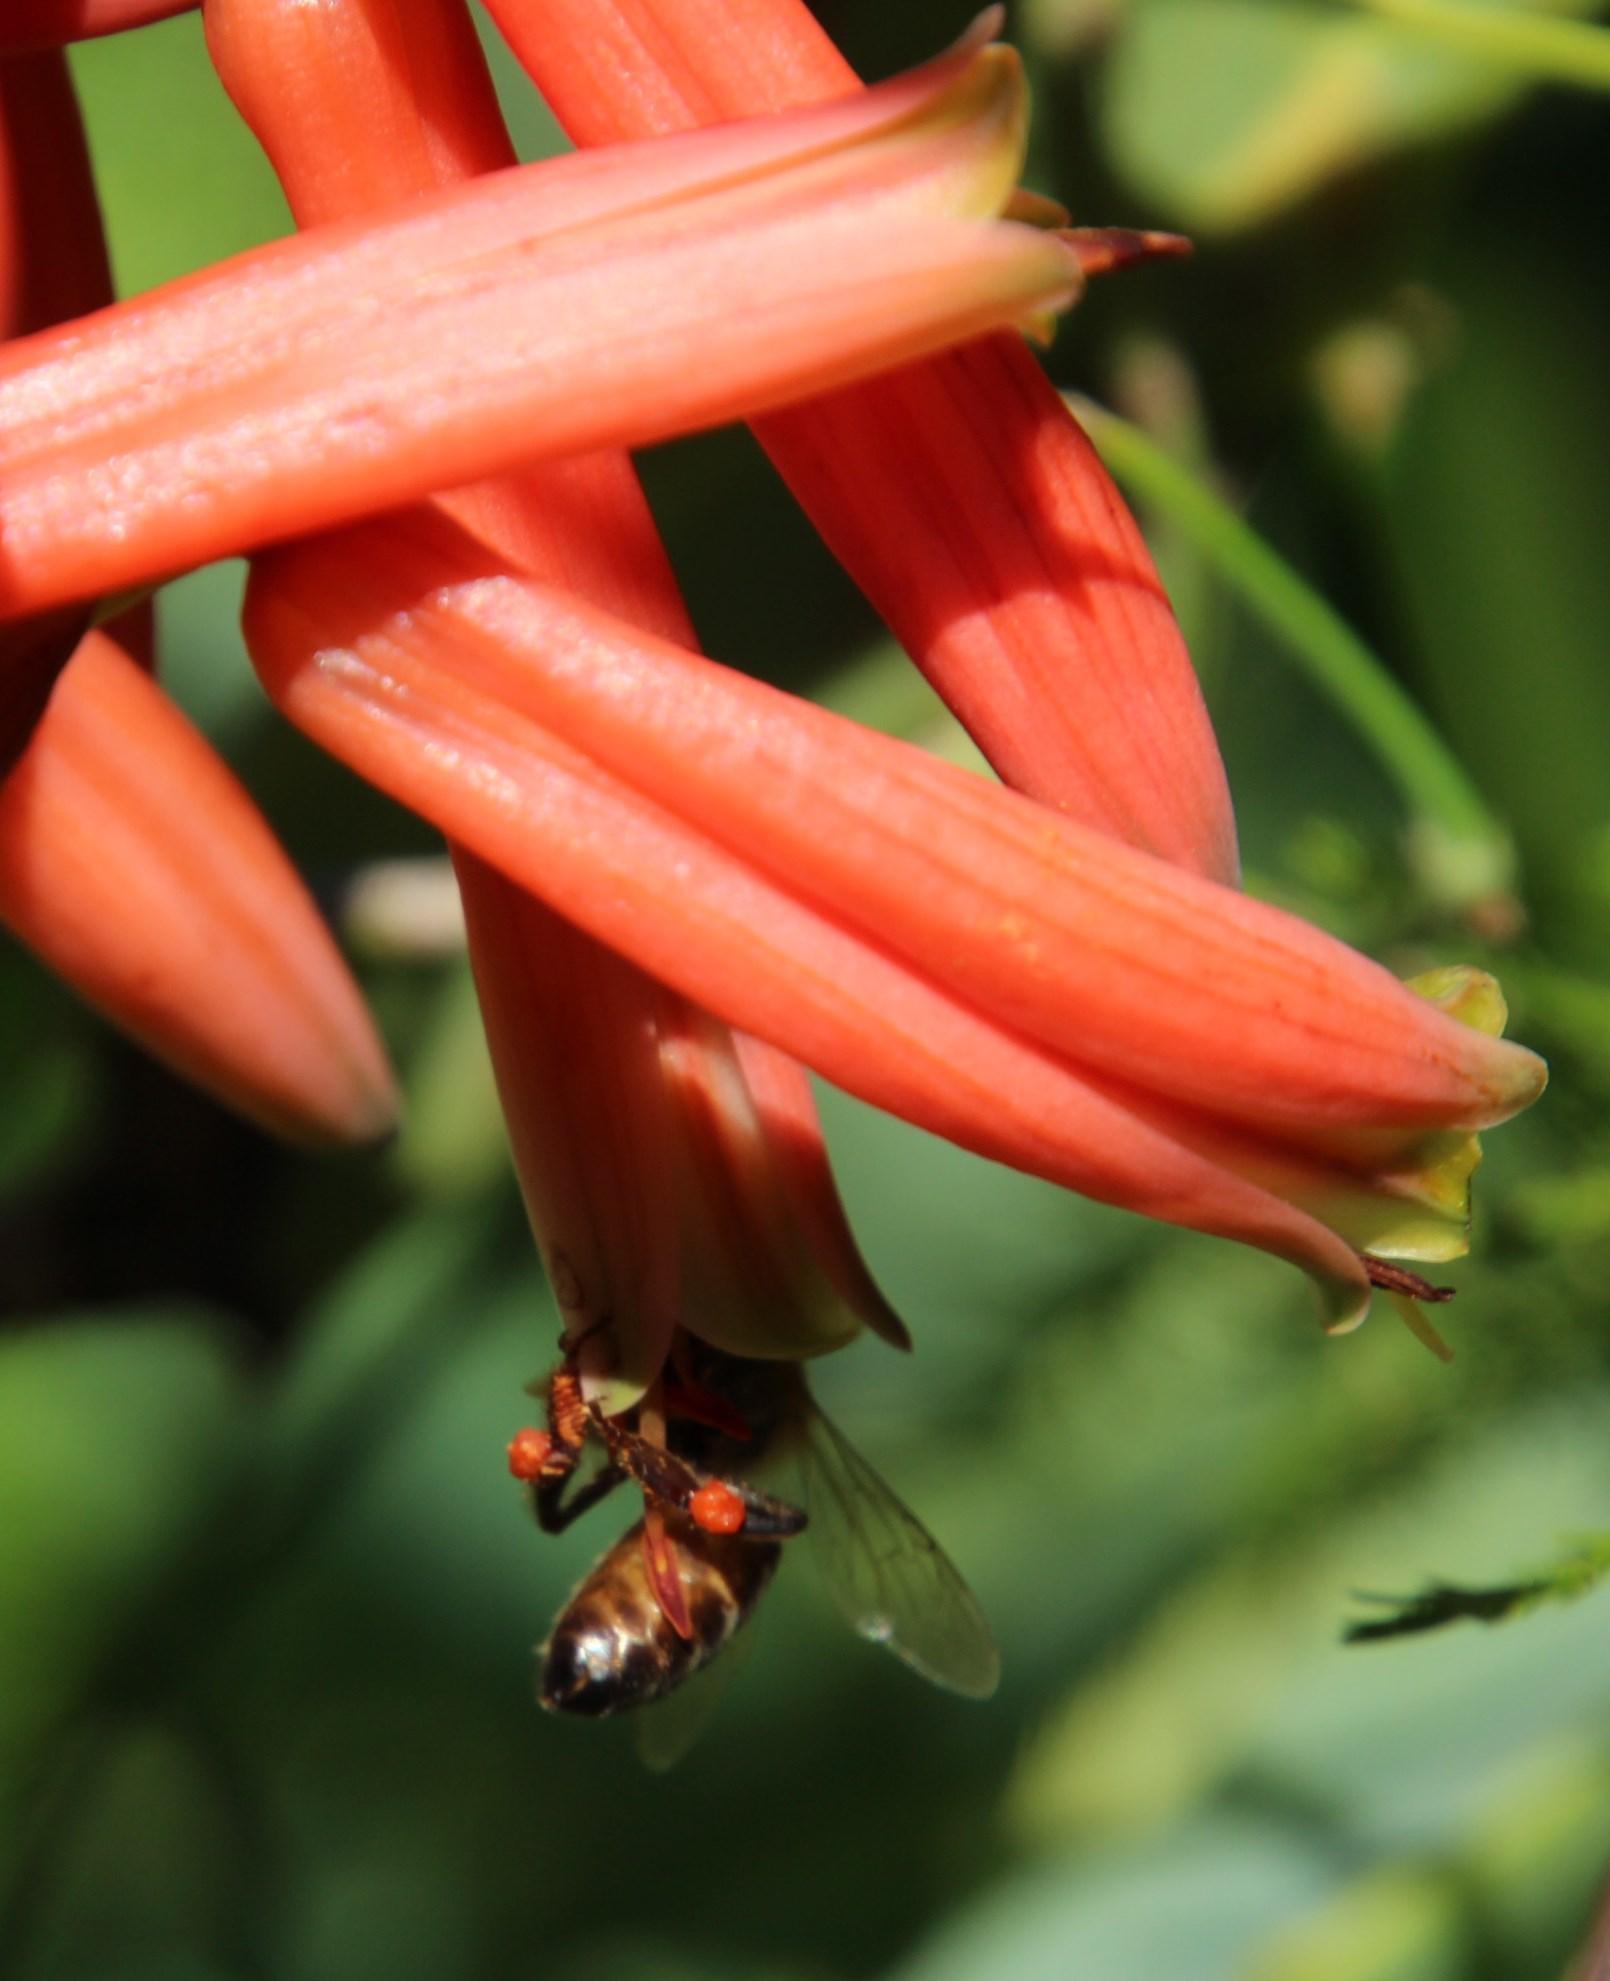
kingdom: Animalia
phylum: Arthropoda
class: Insecta
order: Hymenoptera
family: Apidae
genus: Apis
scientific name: Apis mellifera
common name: Honey bee
